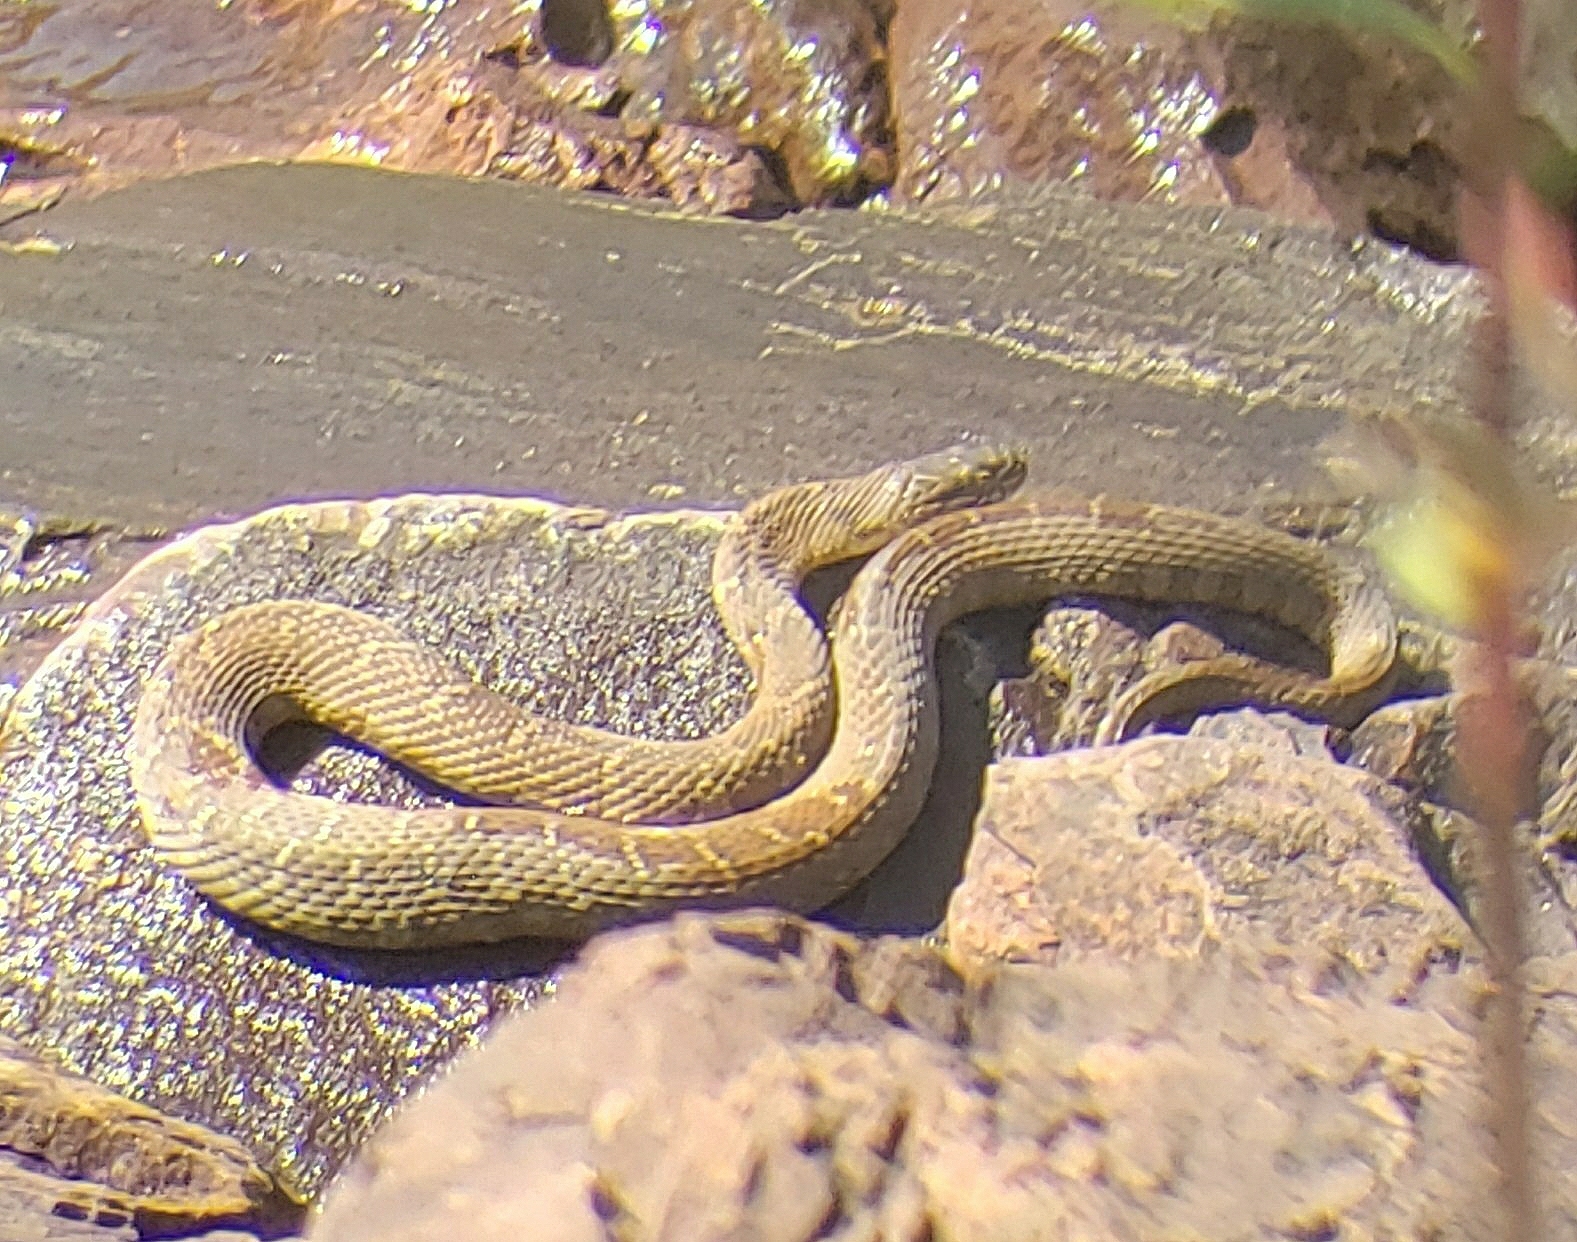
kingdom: Animalia
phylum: Chordata
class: Squamata
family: Colubridae
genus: Nerodia
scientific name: Nerodia sipedon
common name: Northern water snake
